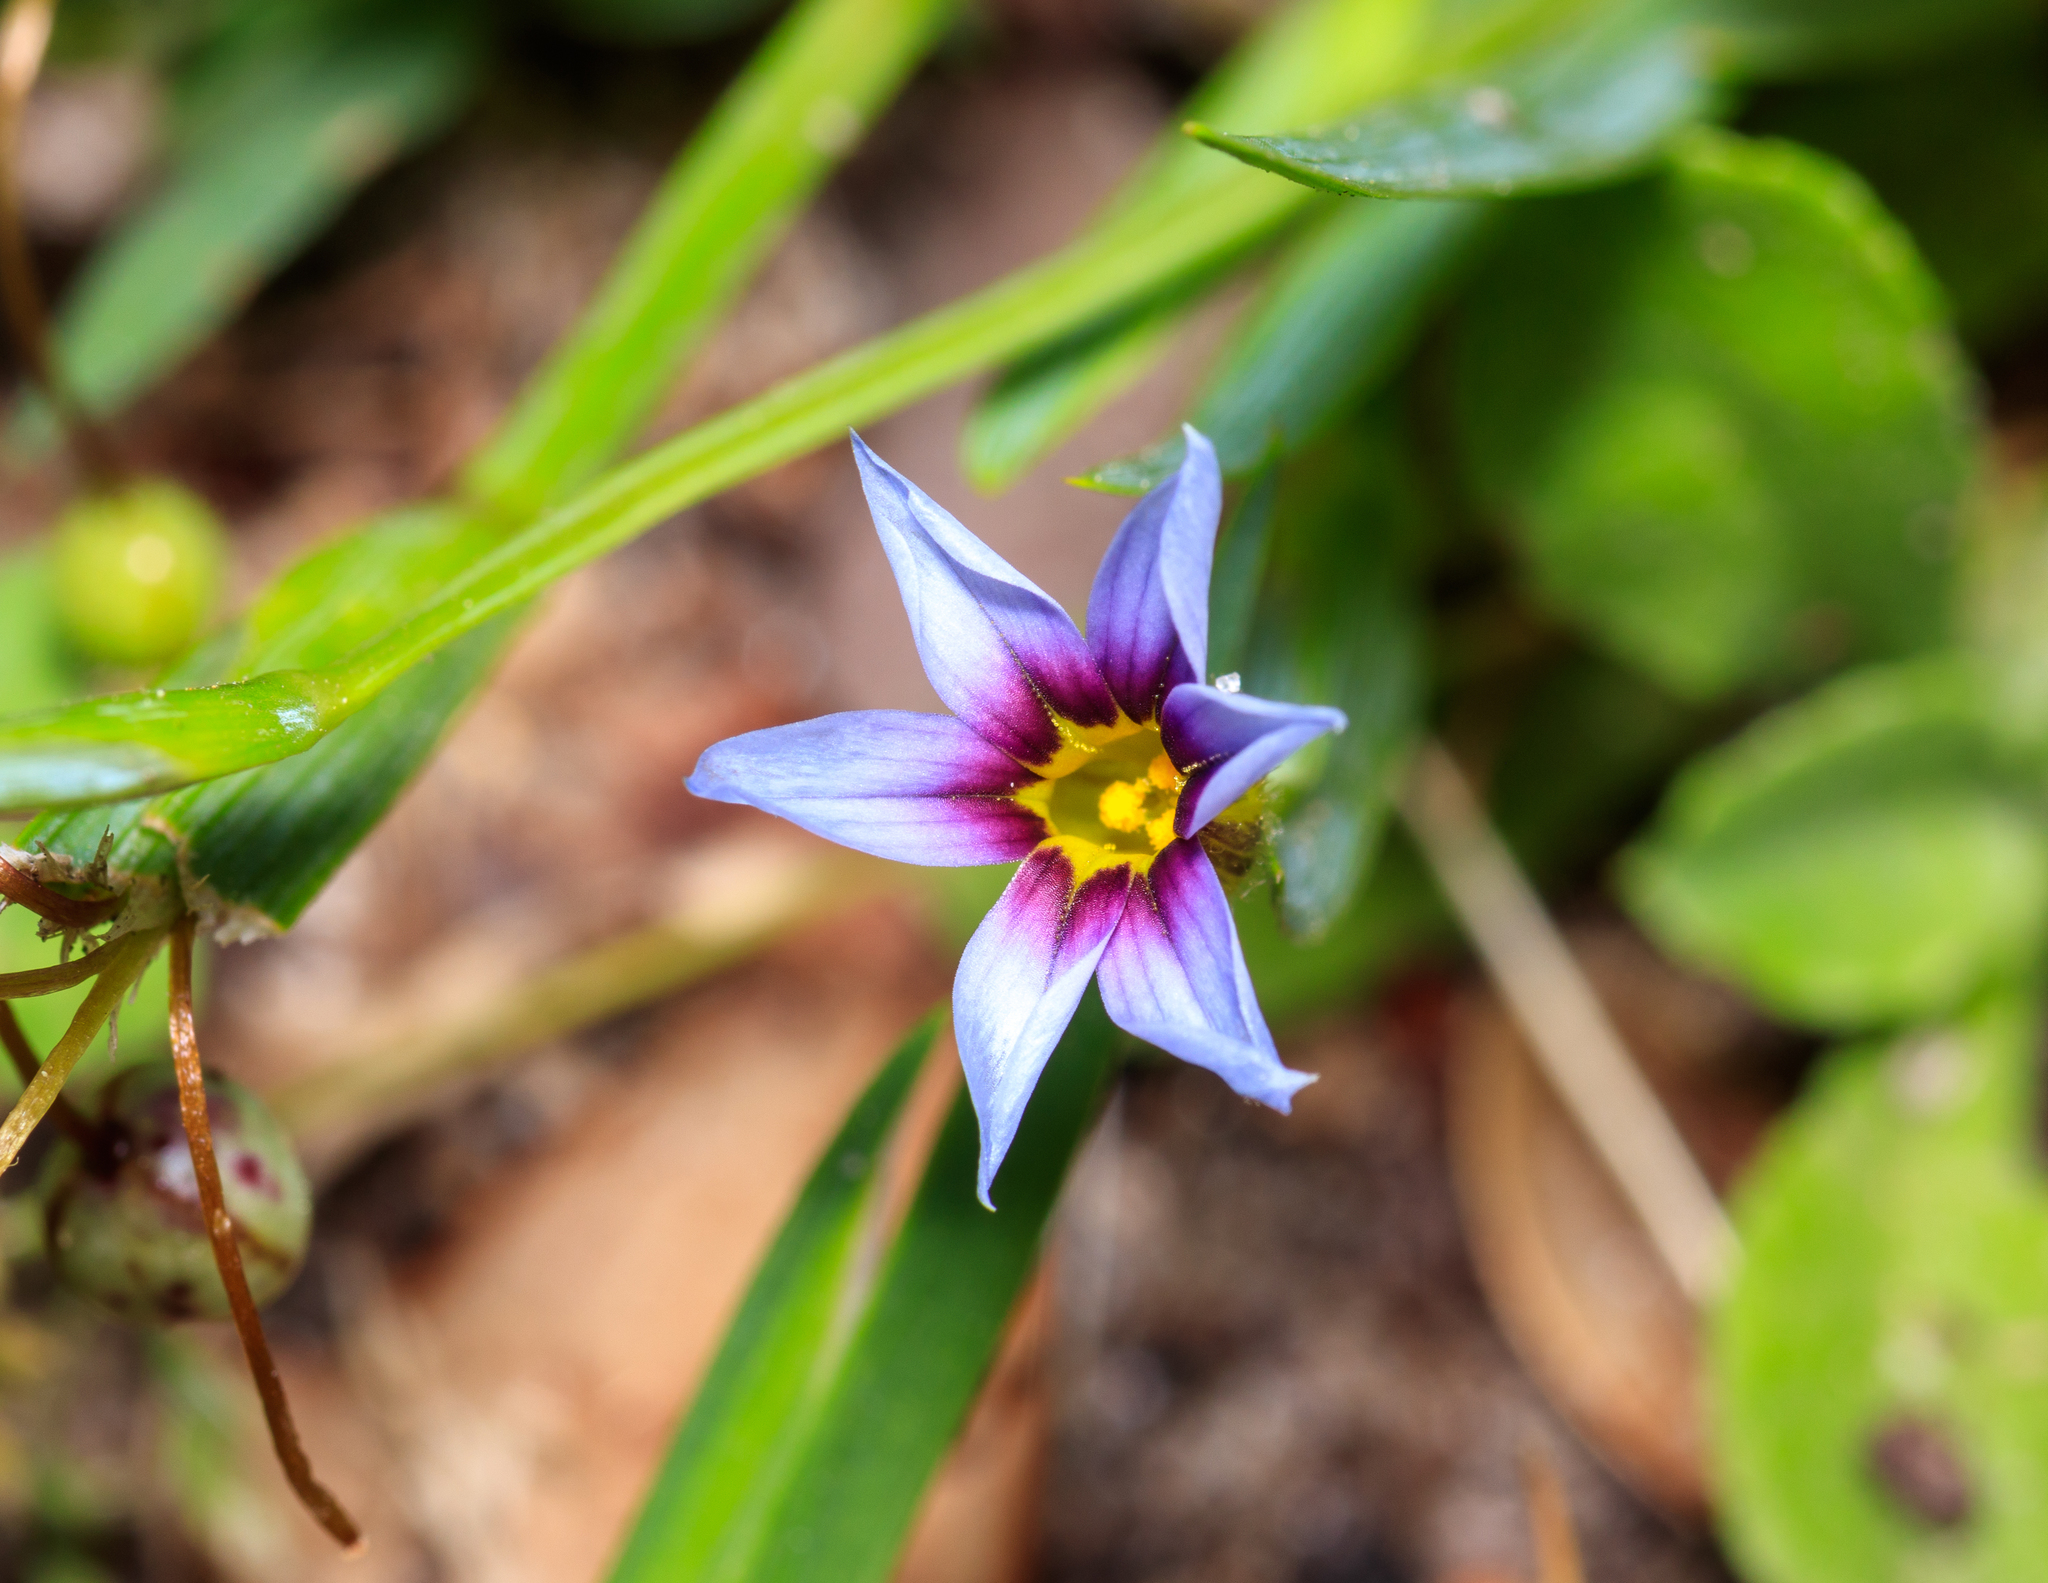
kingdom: Plantae
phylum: Tracheophyta
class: Liliopsida
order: Asparagales
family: Iridaceae
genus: Sisyrinchium
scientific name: Sisyrinchium micranthum
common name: Bermuda pigroot
